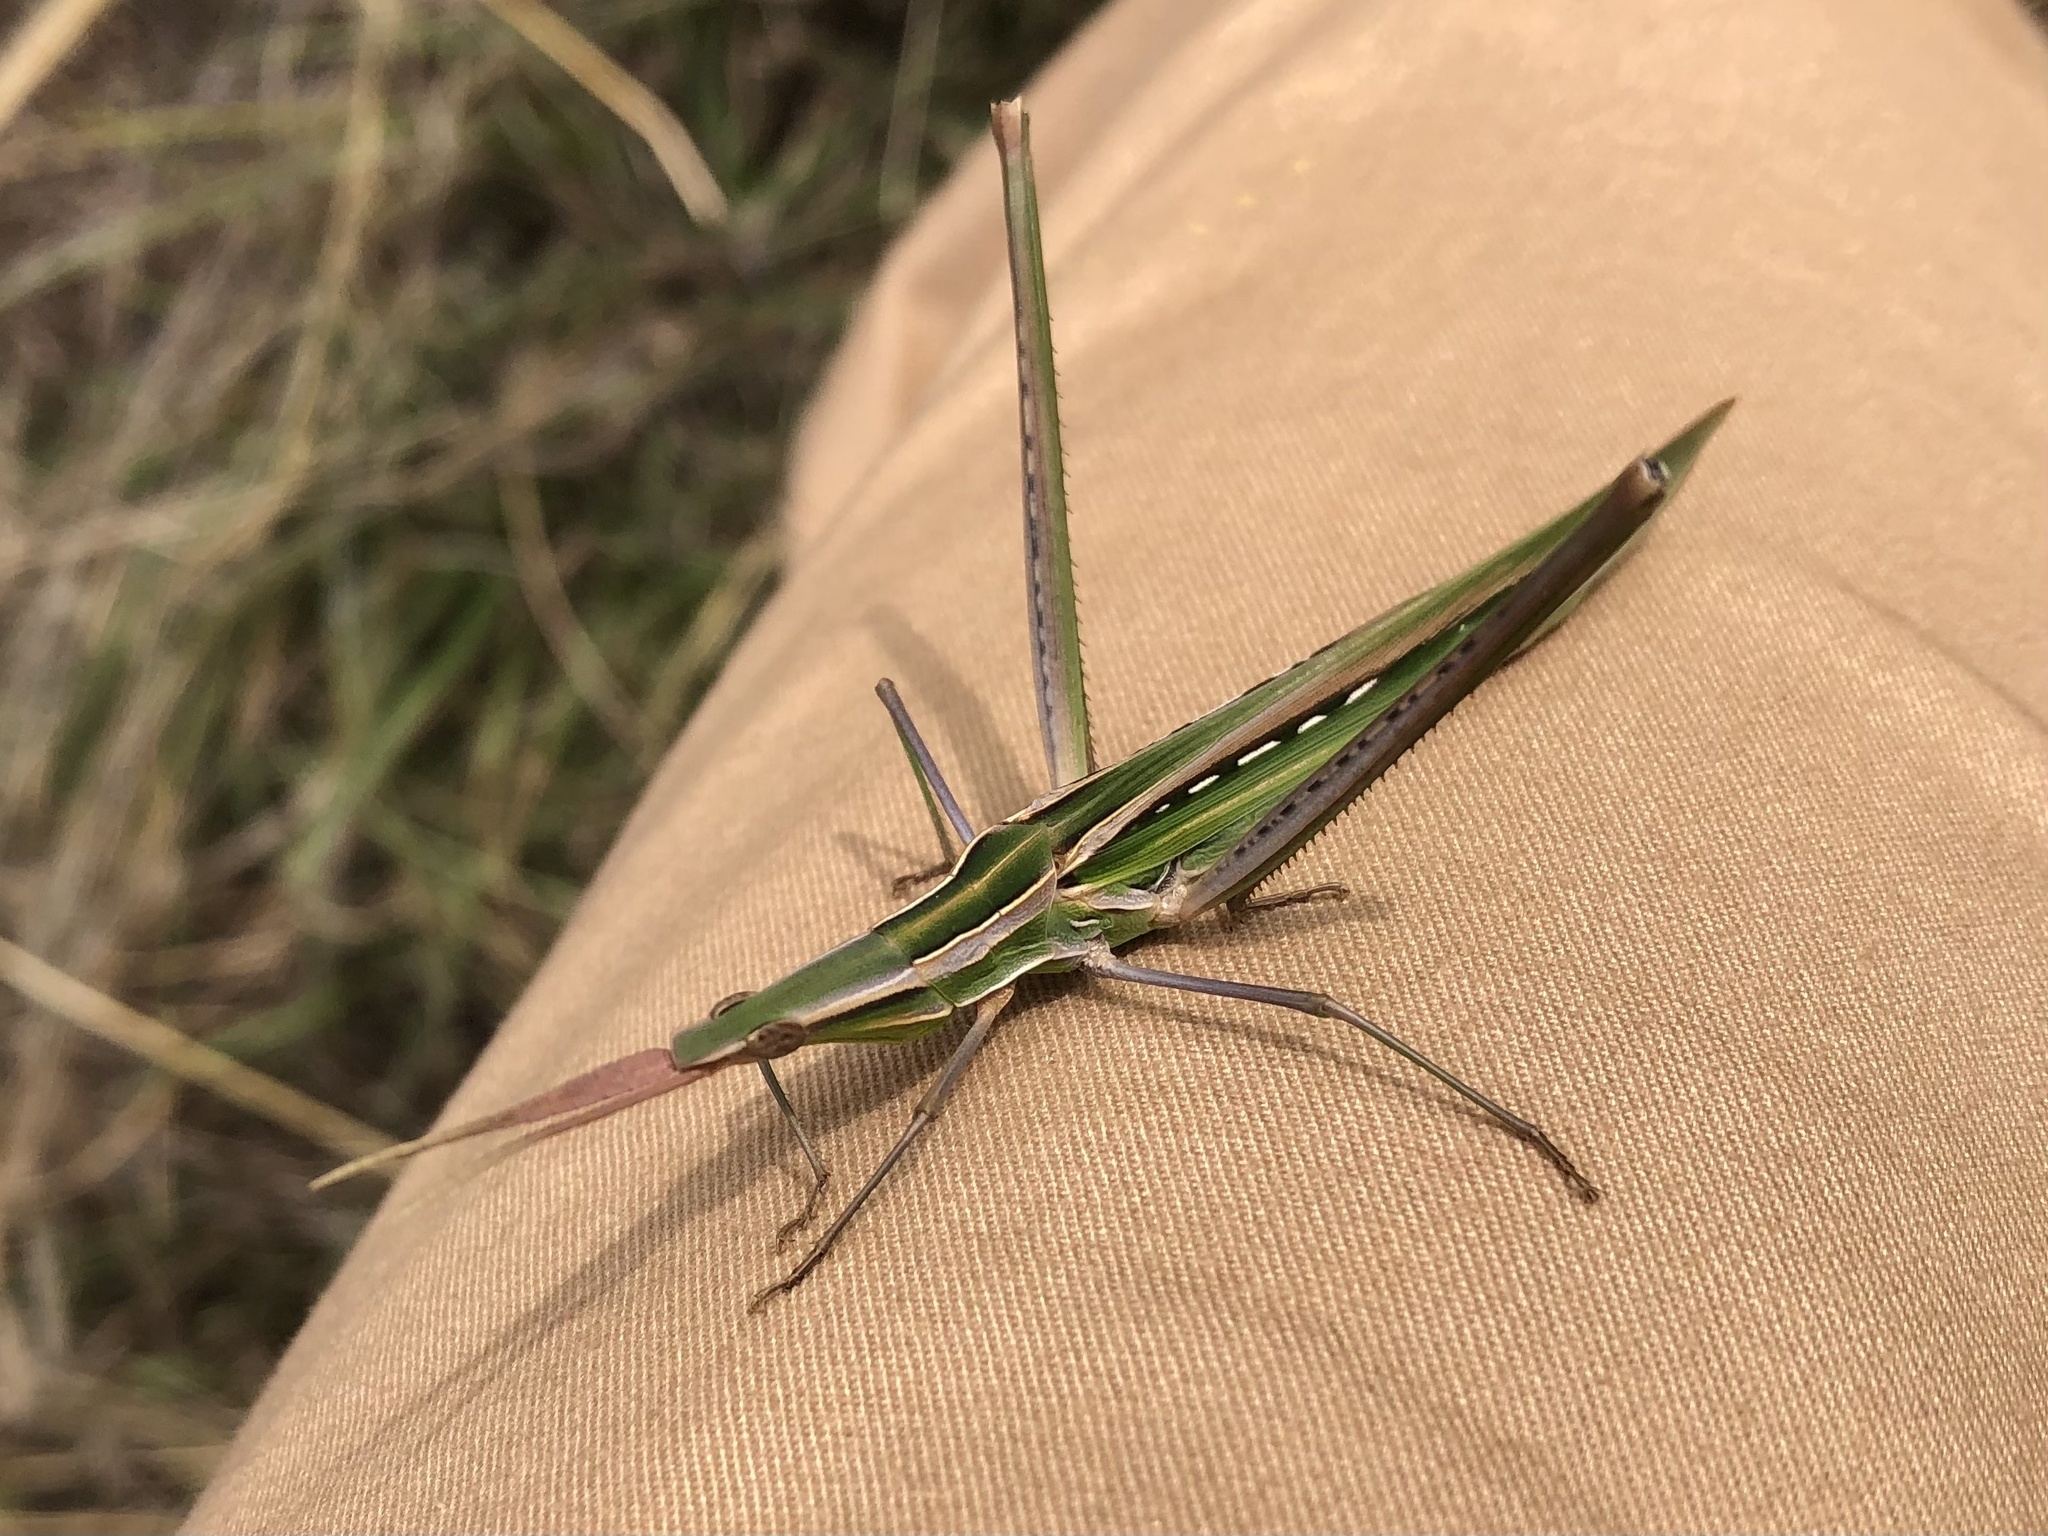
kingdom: Animalia
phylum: Arthropoda
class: Insecta
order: Orthoptera
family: Acrididae
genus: Acrida
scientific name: Acrida ungarica
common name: Common cone-headed grasshopper
